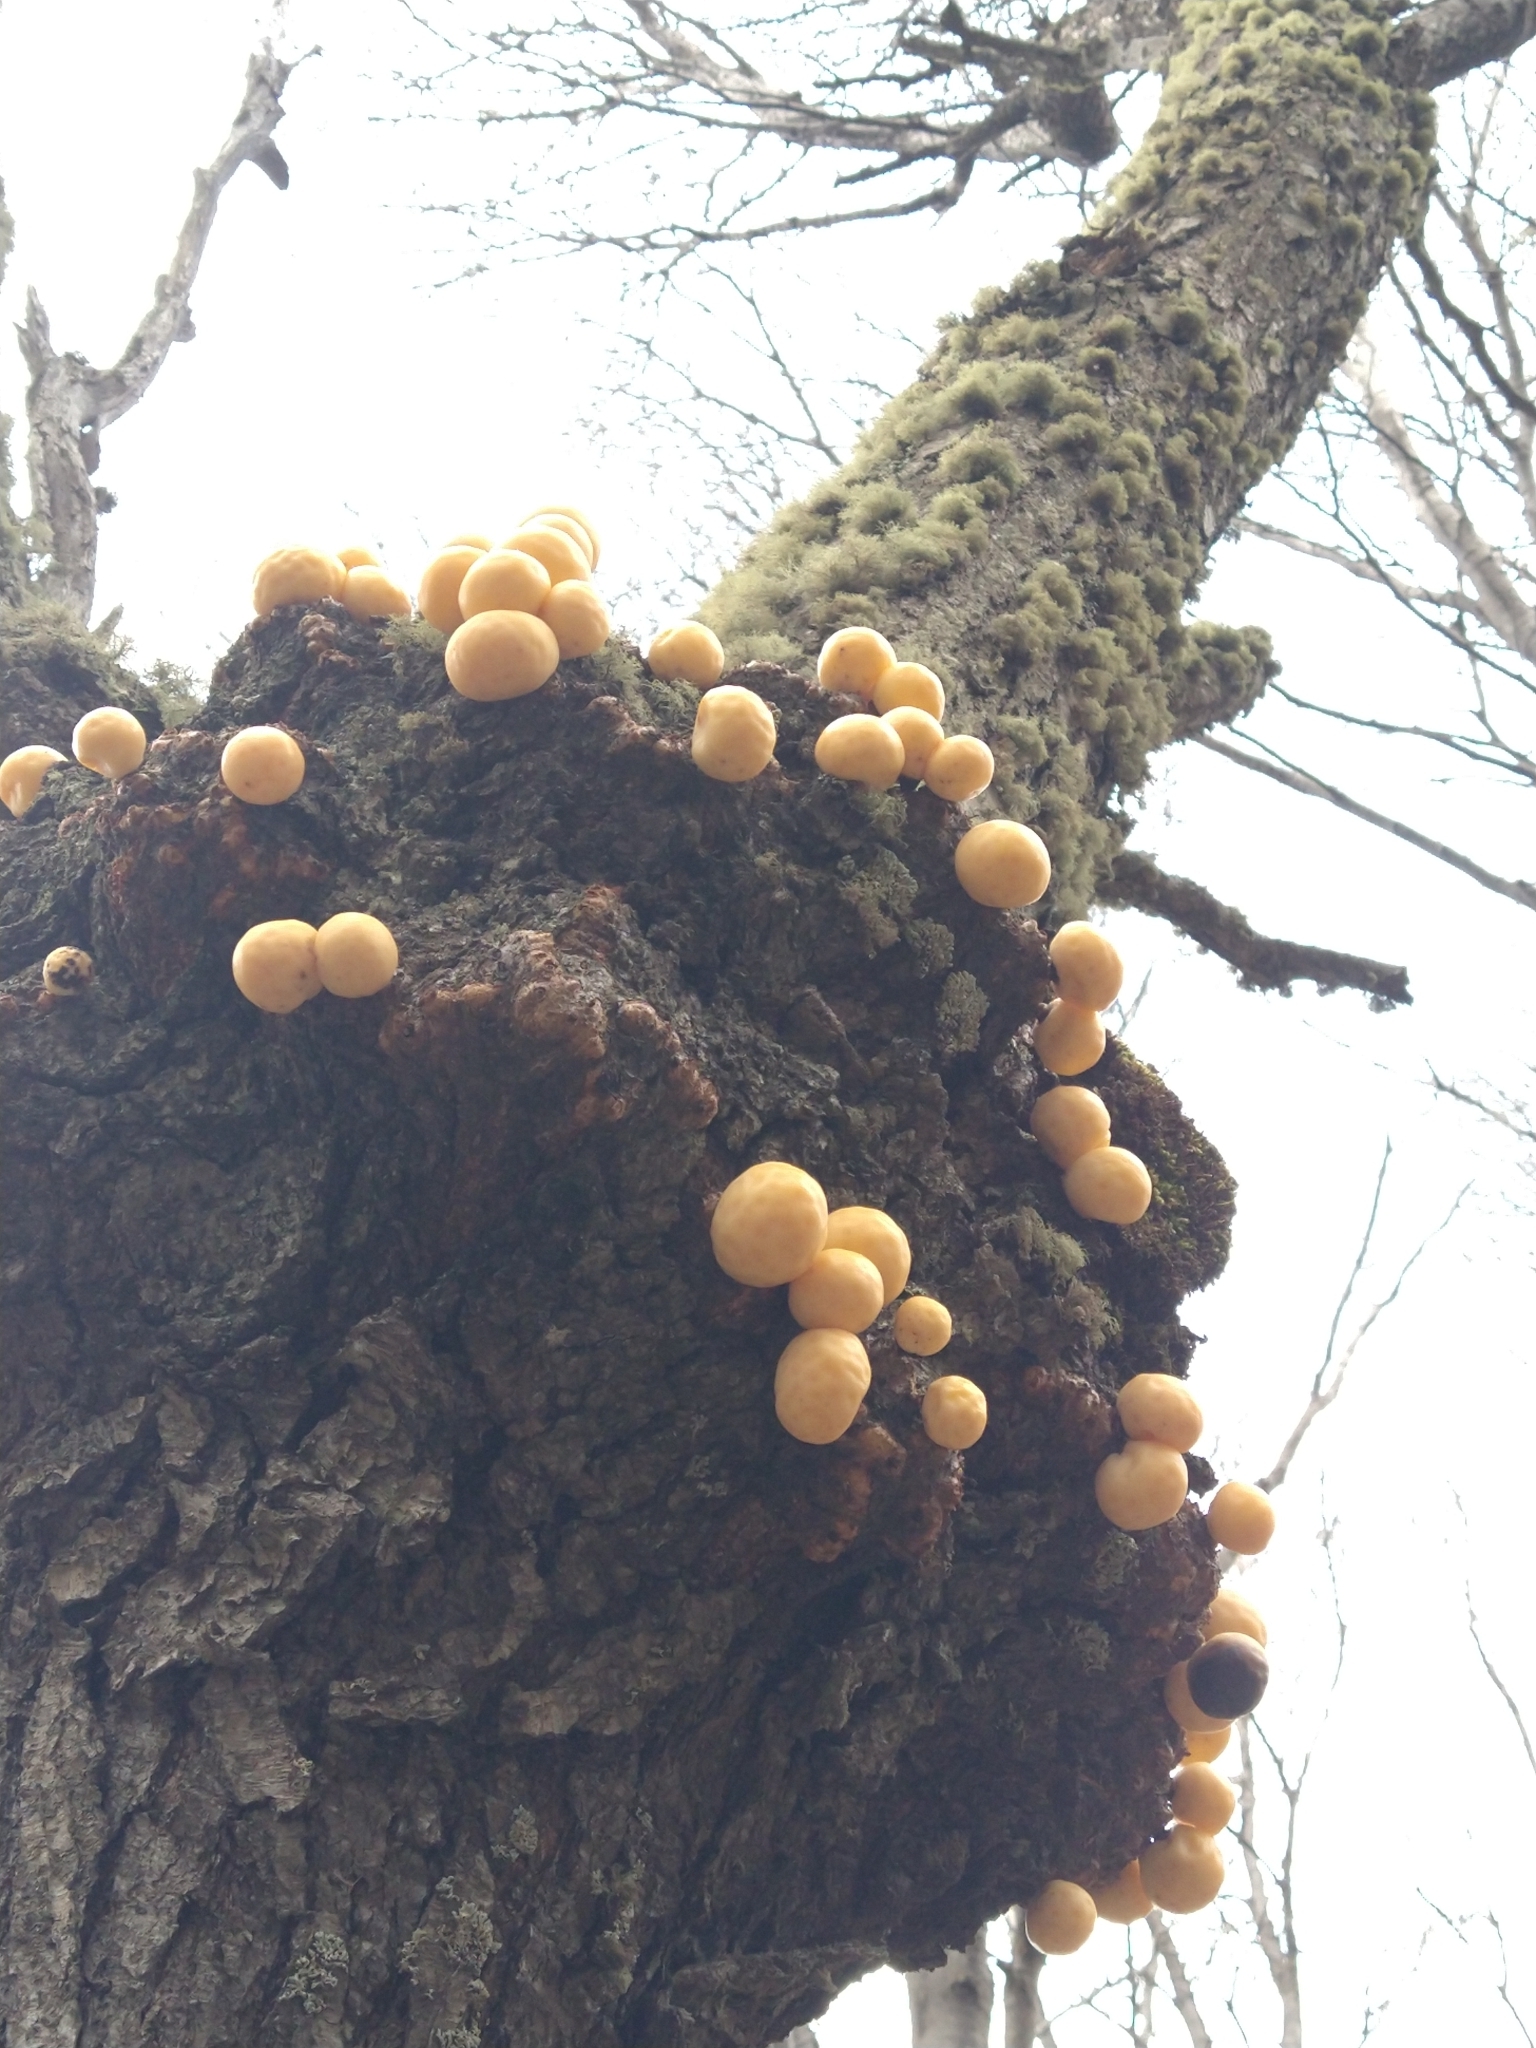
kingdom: Fungi
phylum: Ascomycota
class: Leotiomycetes
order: Cyttariales
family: Cyttariaceae
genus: Cyttaria
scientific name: Cyttaria darwinii
